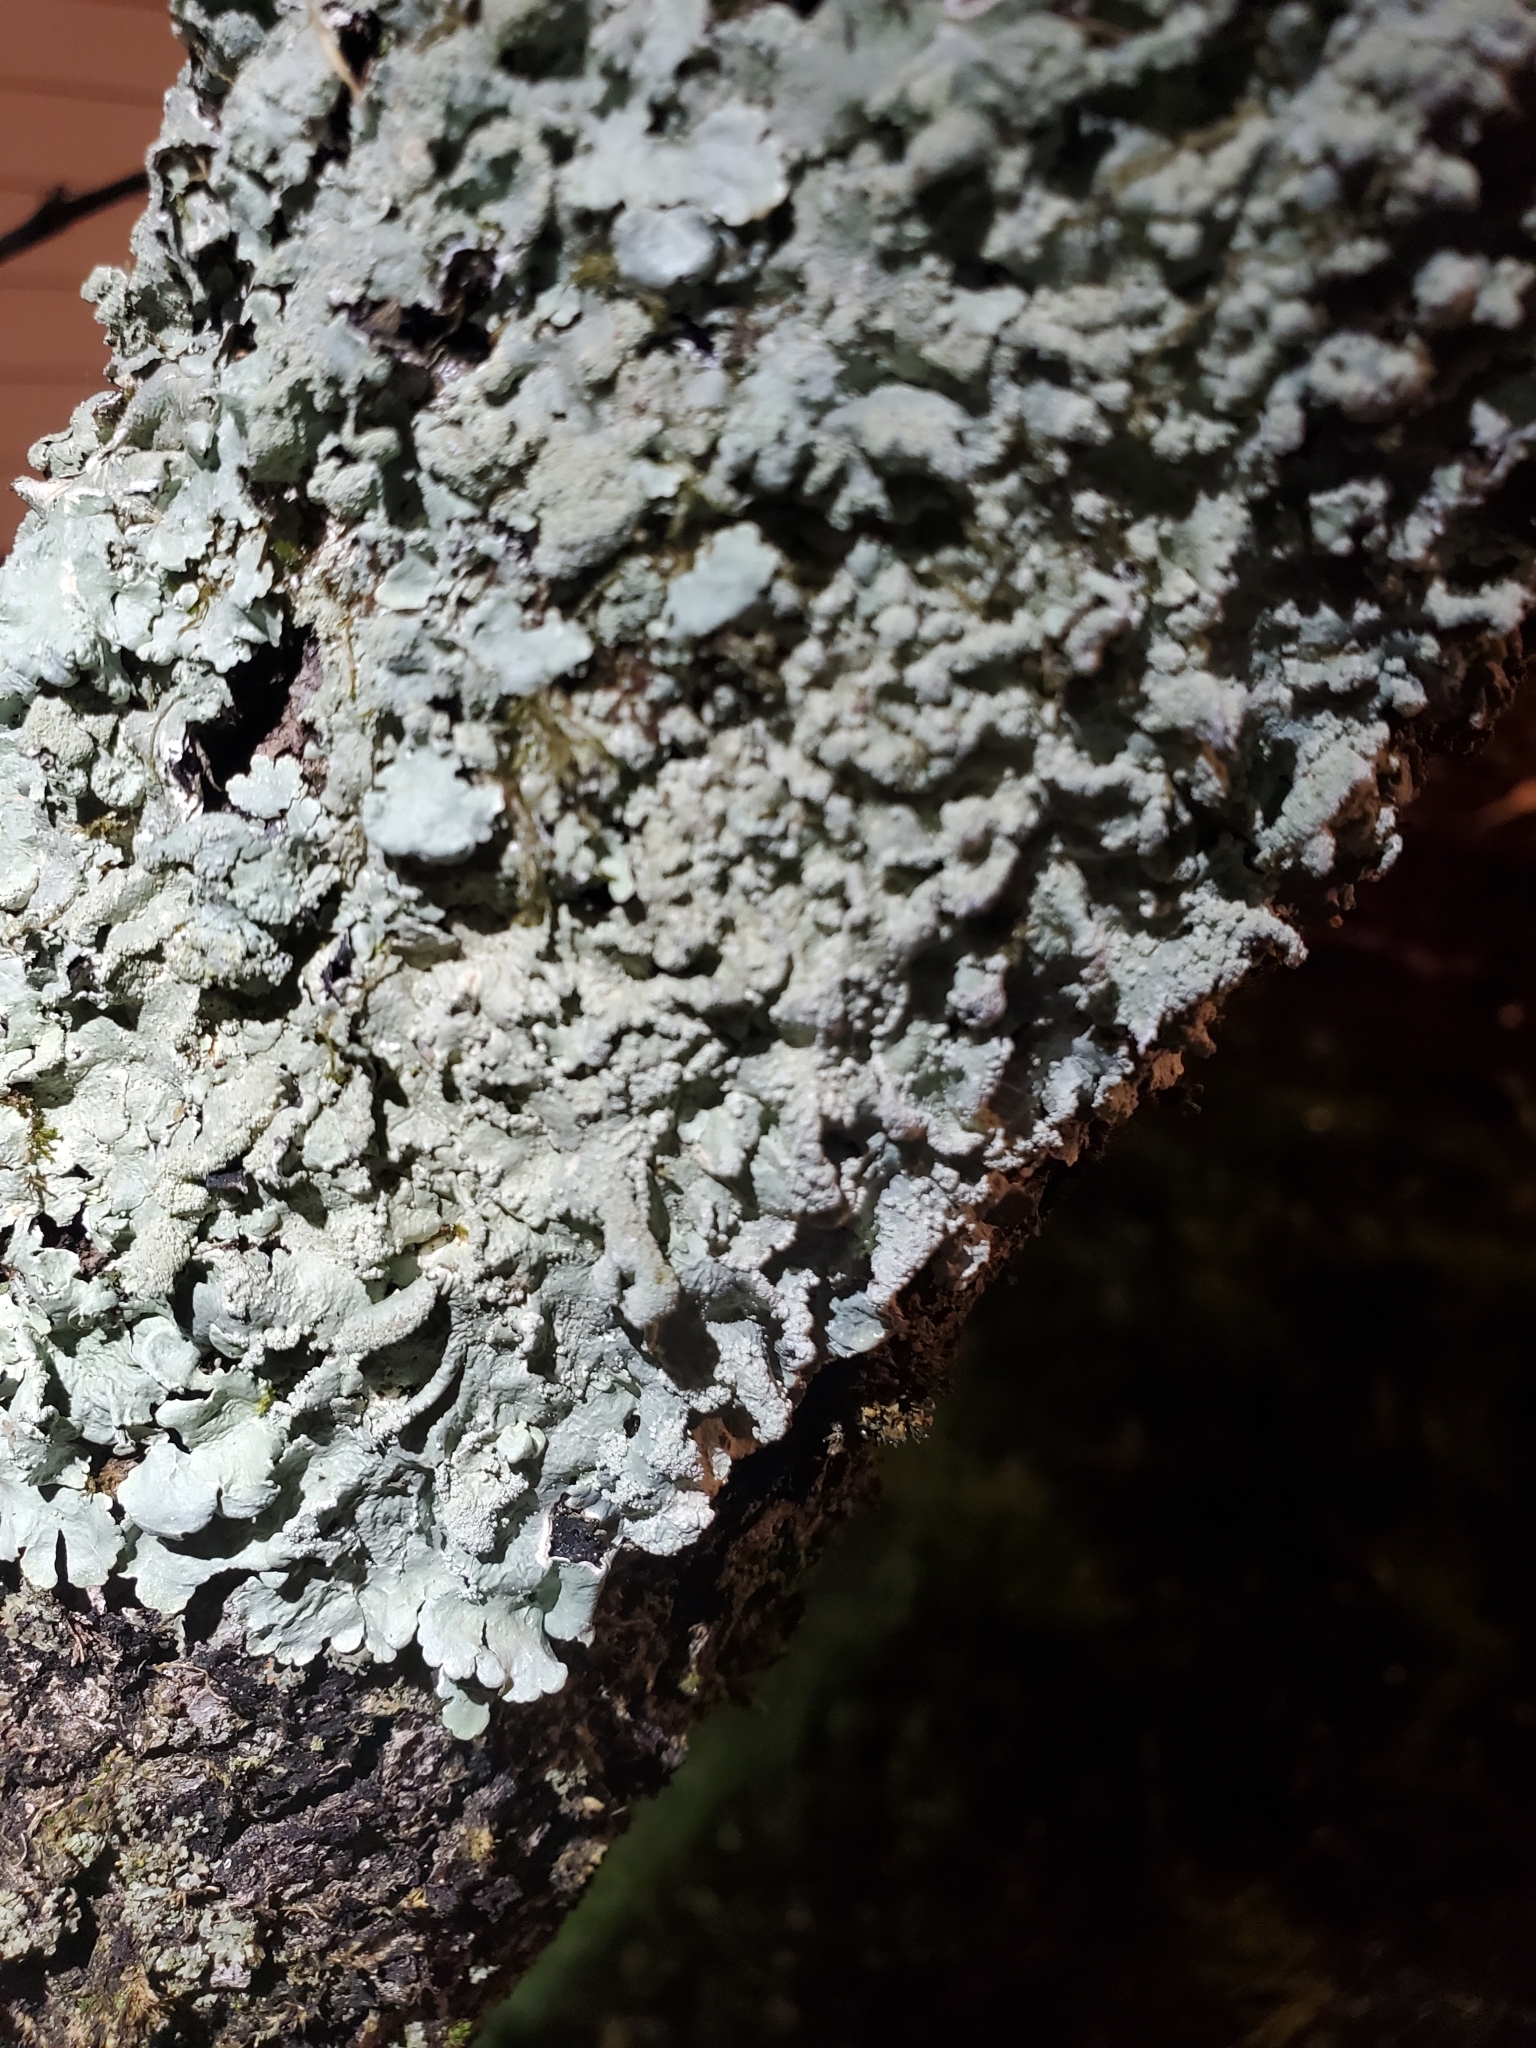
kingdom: Fungi
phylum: Ascomycota
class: Lecanoromycetes
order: Lecanorales
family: Parmeliaceae
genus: Flavoparmelia
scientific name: Flavoparmelia caperata
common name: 40-mile per hour lichen
